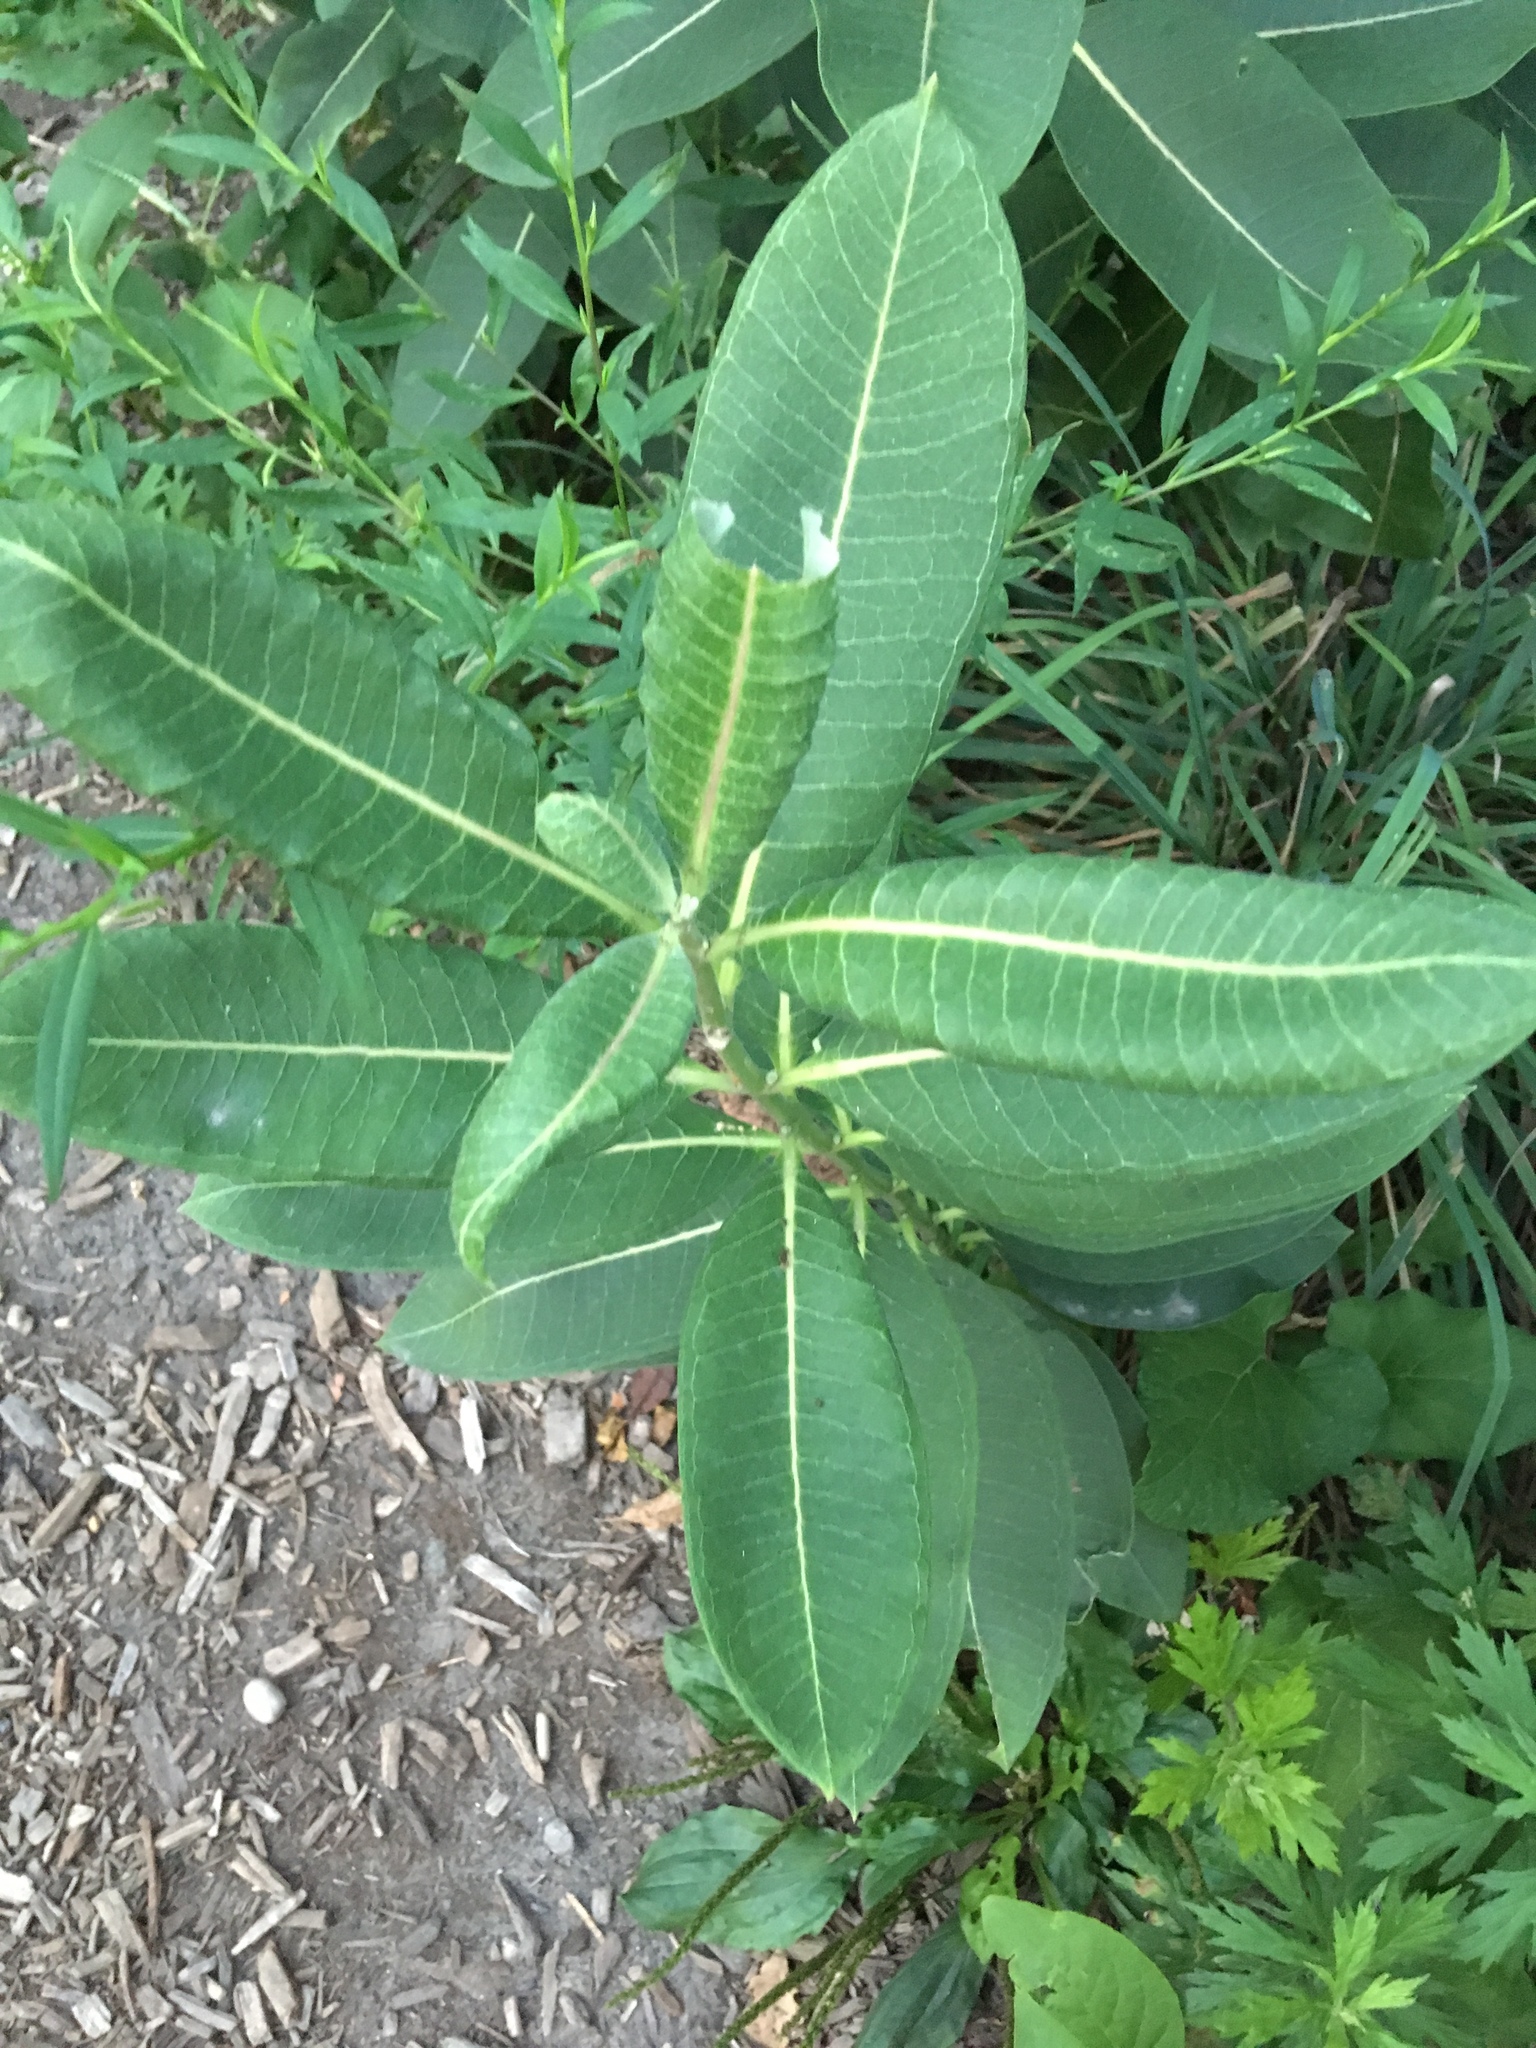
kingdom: Plantae
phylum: Tracheophyta
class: Magnoliopsida
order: Gentianales
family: Apocynaceae
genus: Asclepias
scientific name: Asclepias syriaca
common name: Common milkweed
